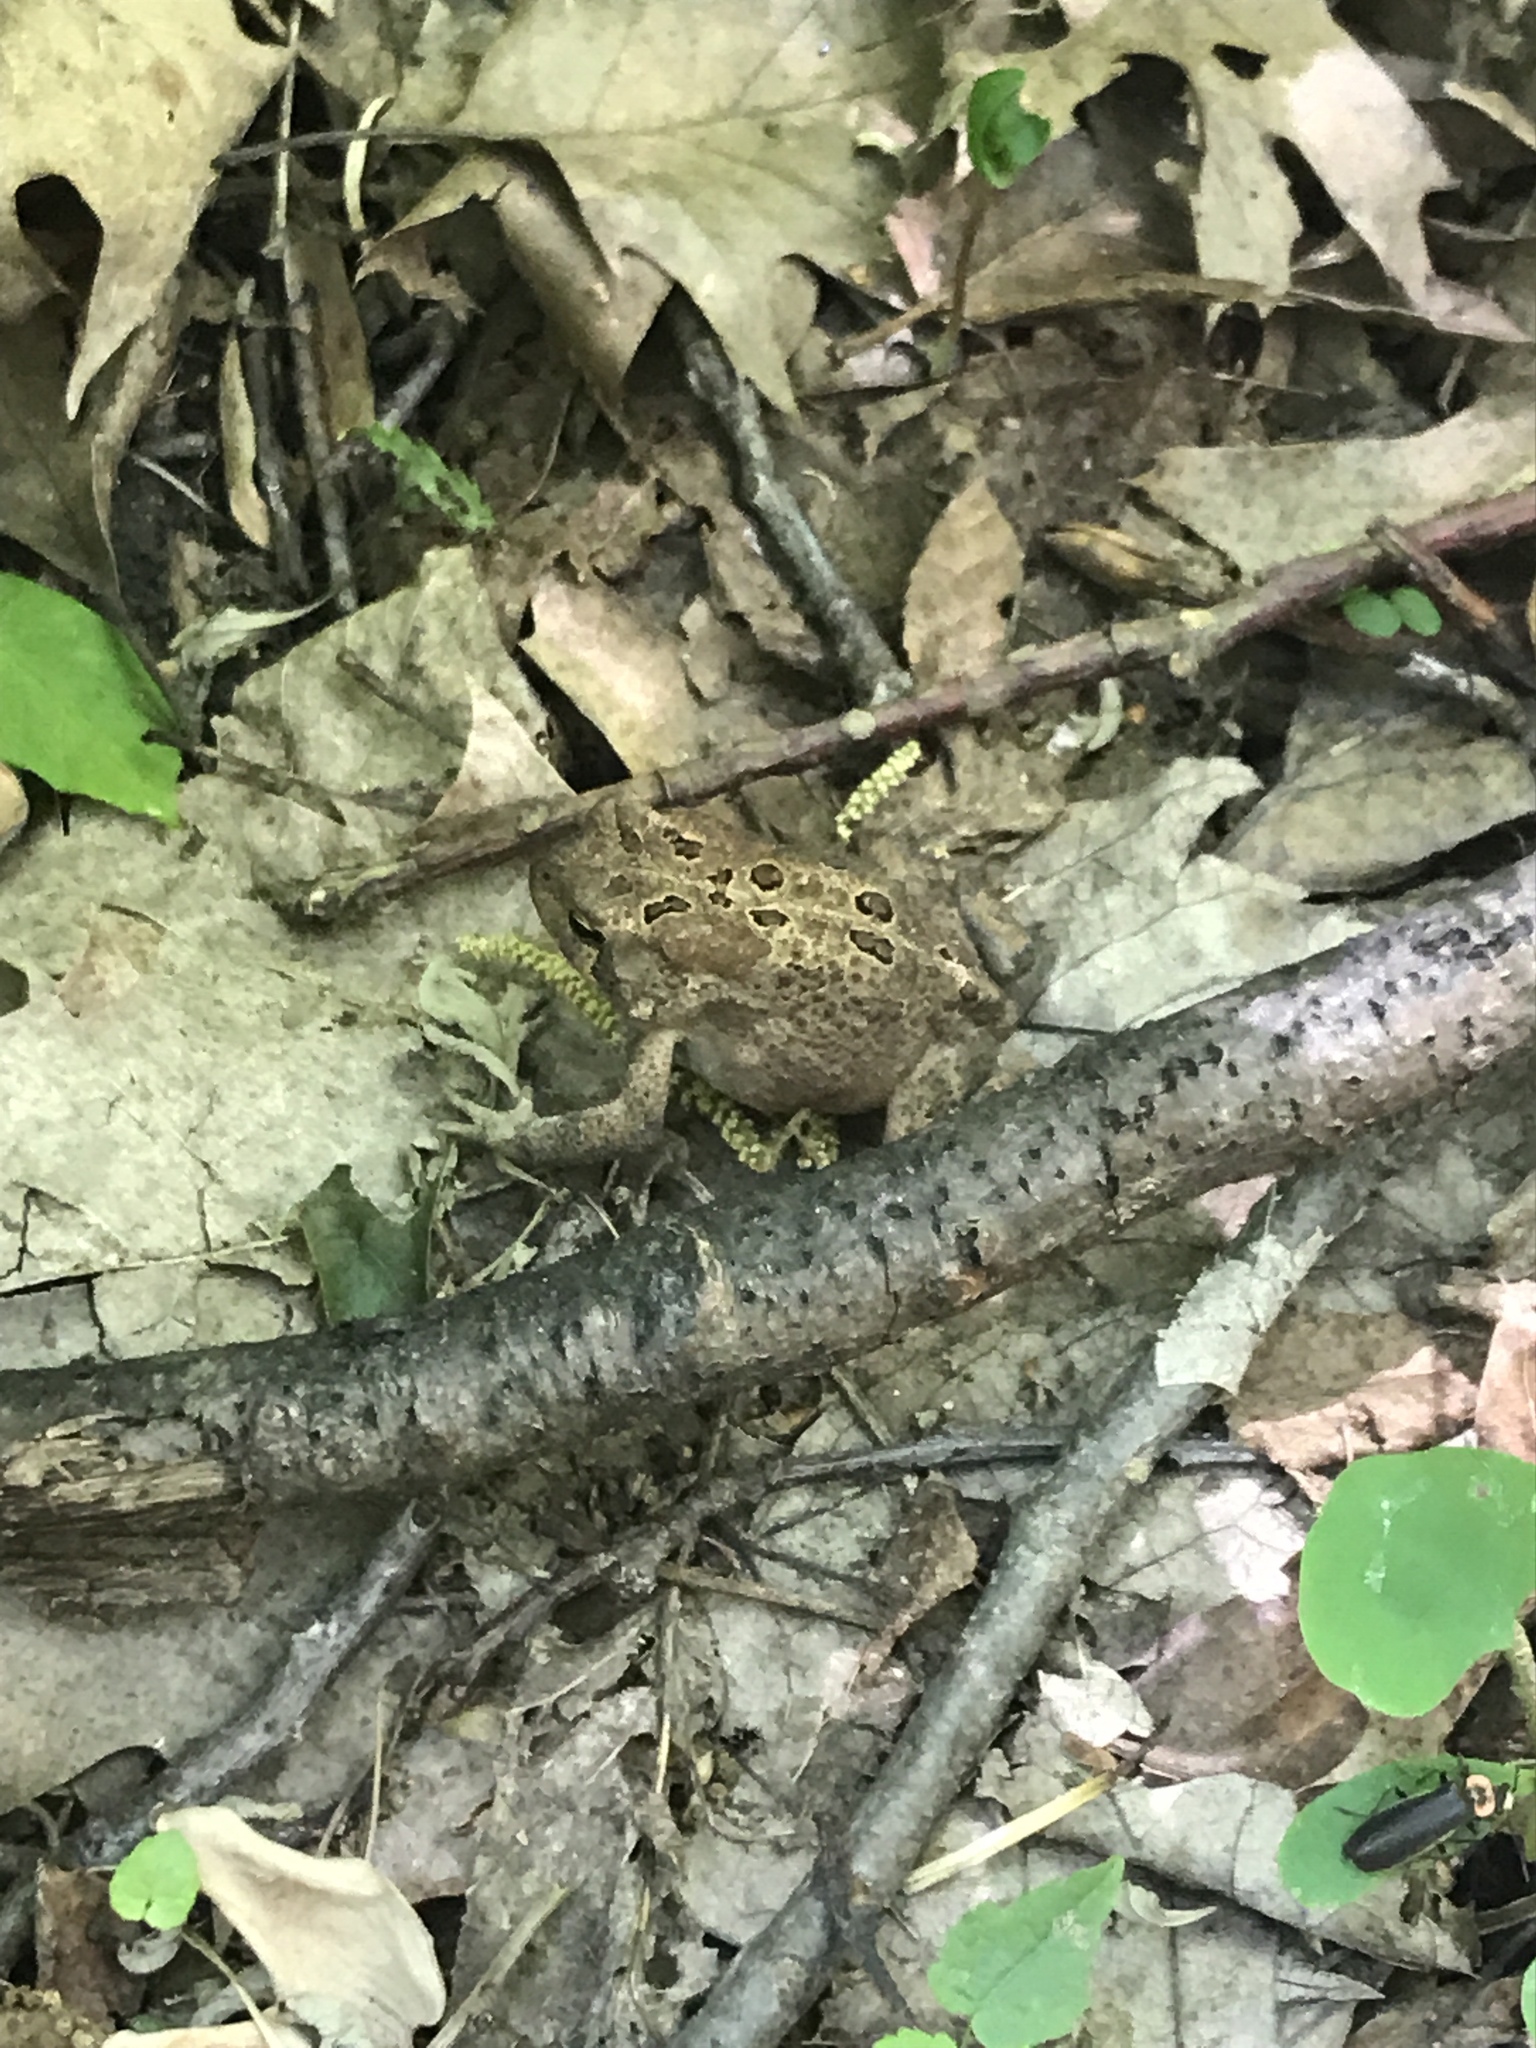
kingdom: Animalia
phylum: Chordata
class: Amphibia
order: Anura
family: Bufonidae
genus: Anaxyrus
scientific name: Anaxyrus americanus
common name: American toad
